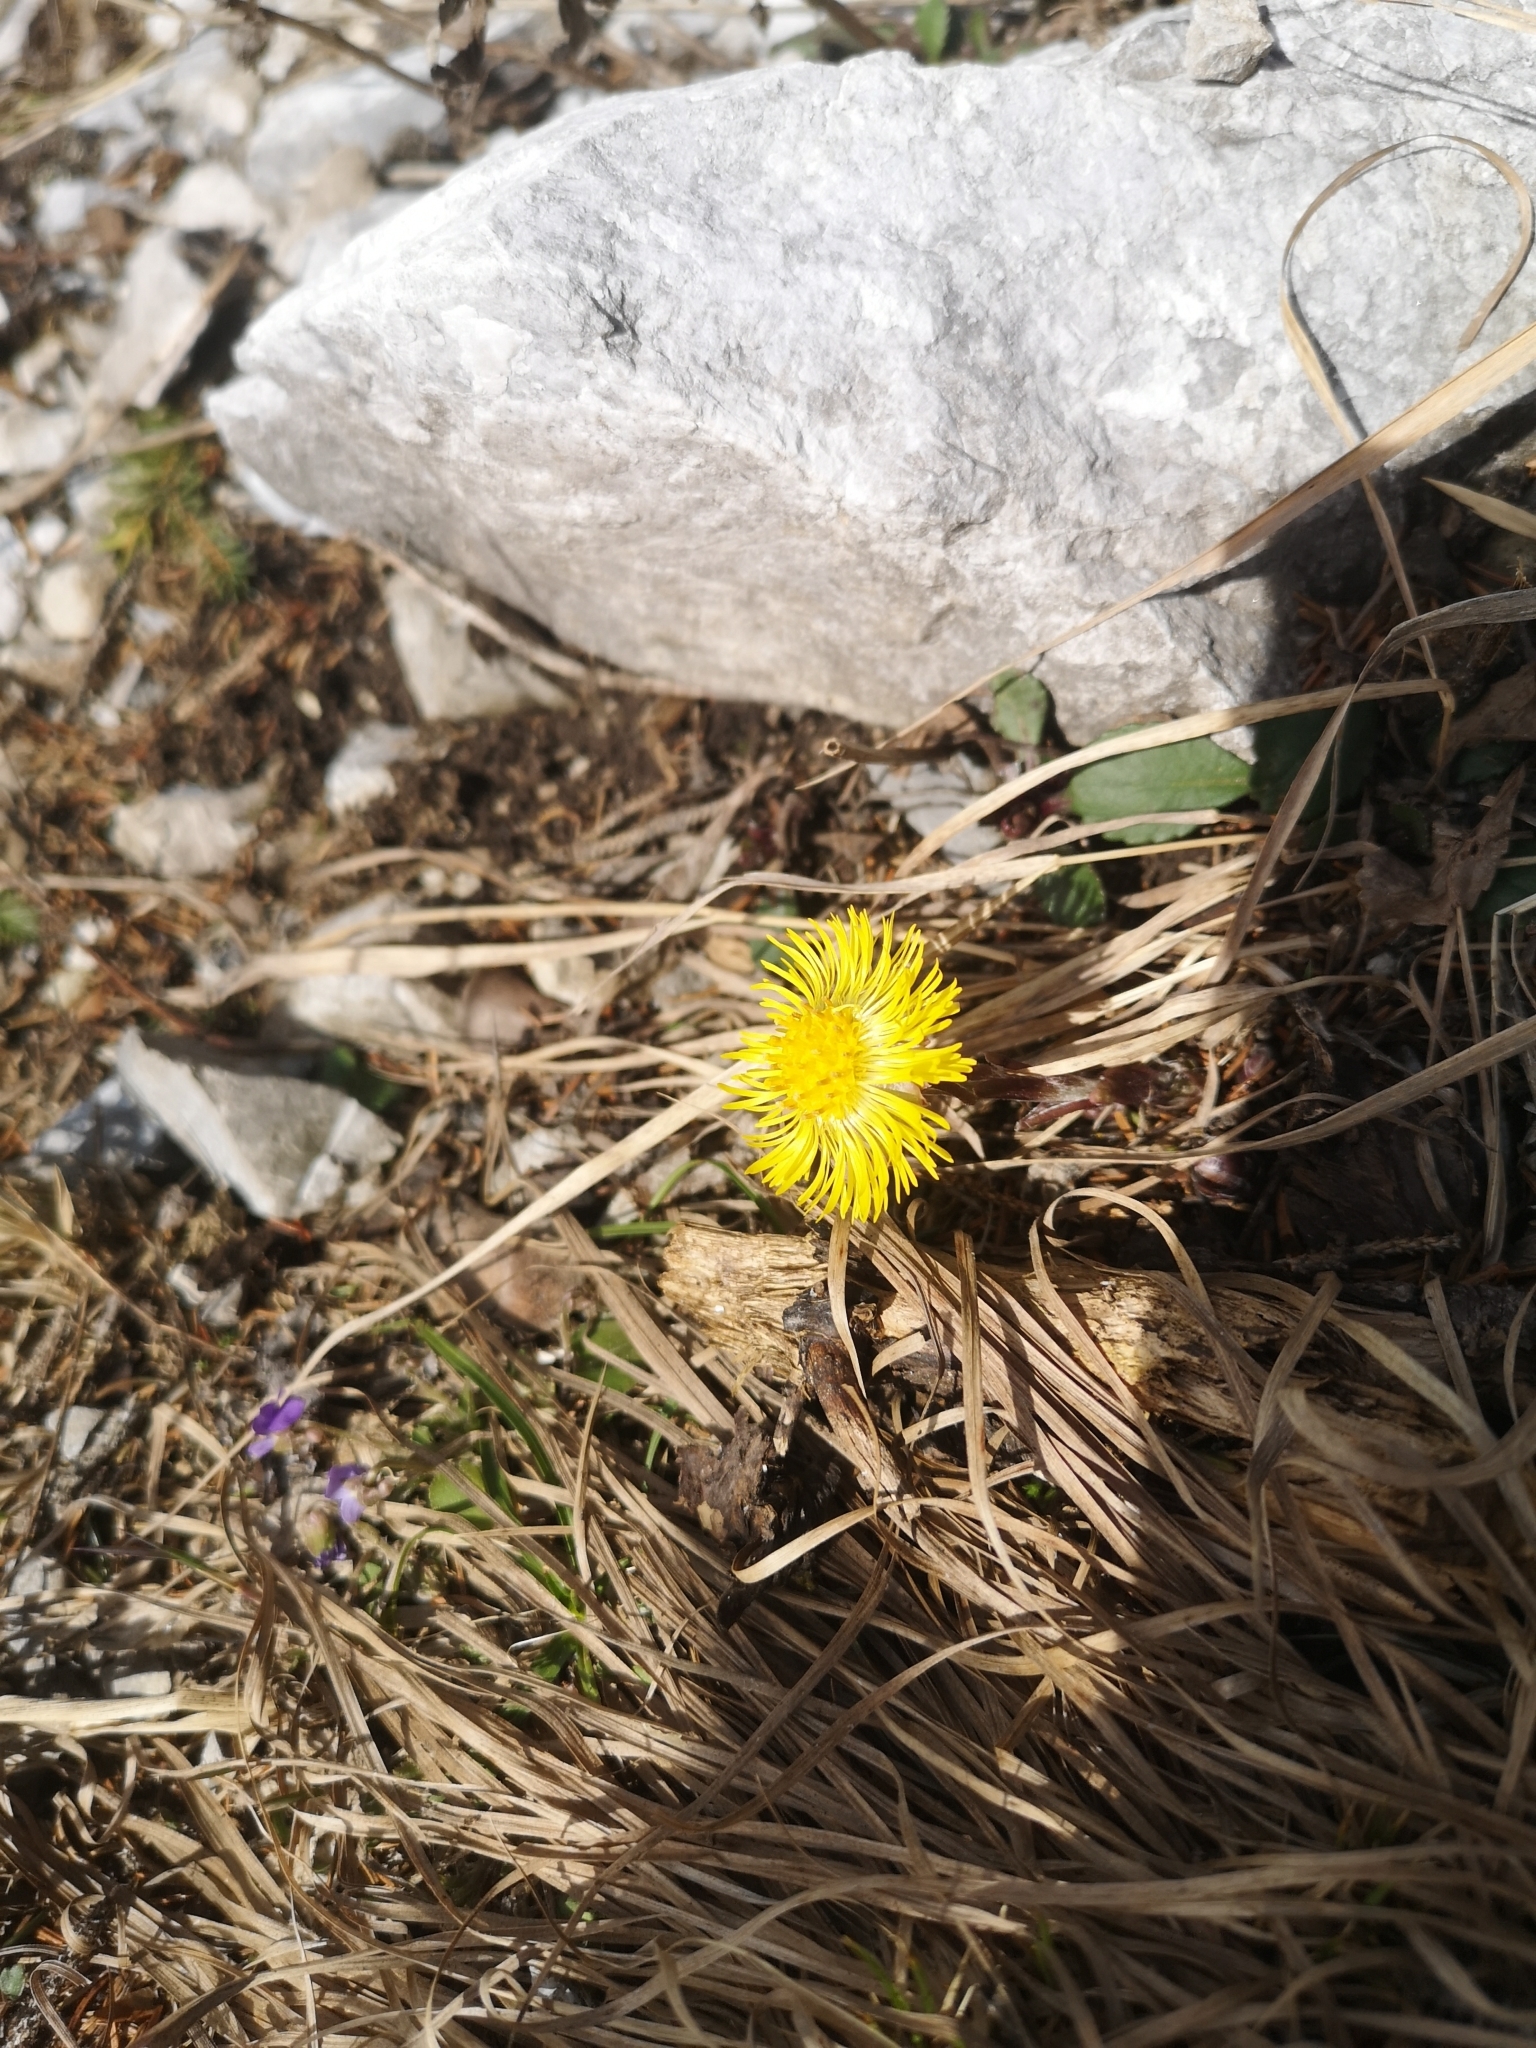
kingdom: Plantae
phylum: Tracheophyta
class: Magnoliopsida
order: Asterales
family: Asteraceae
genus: Tussilago
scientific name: Tussilago farfara
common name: Coltsfoot
